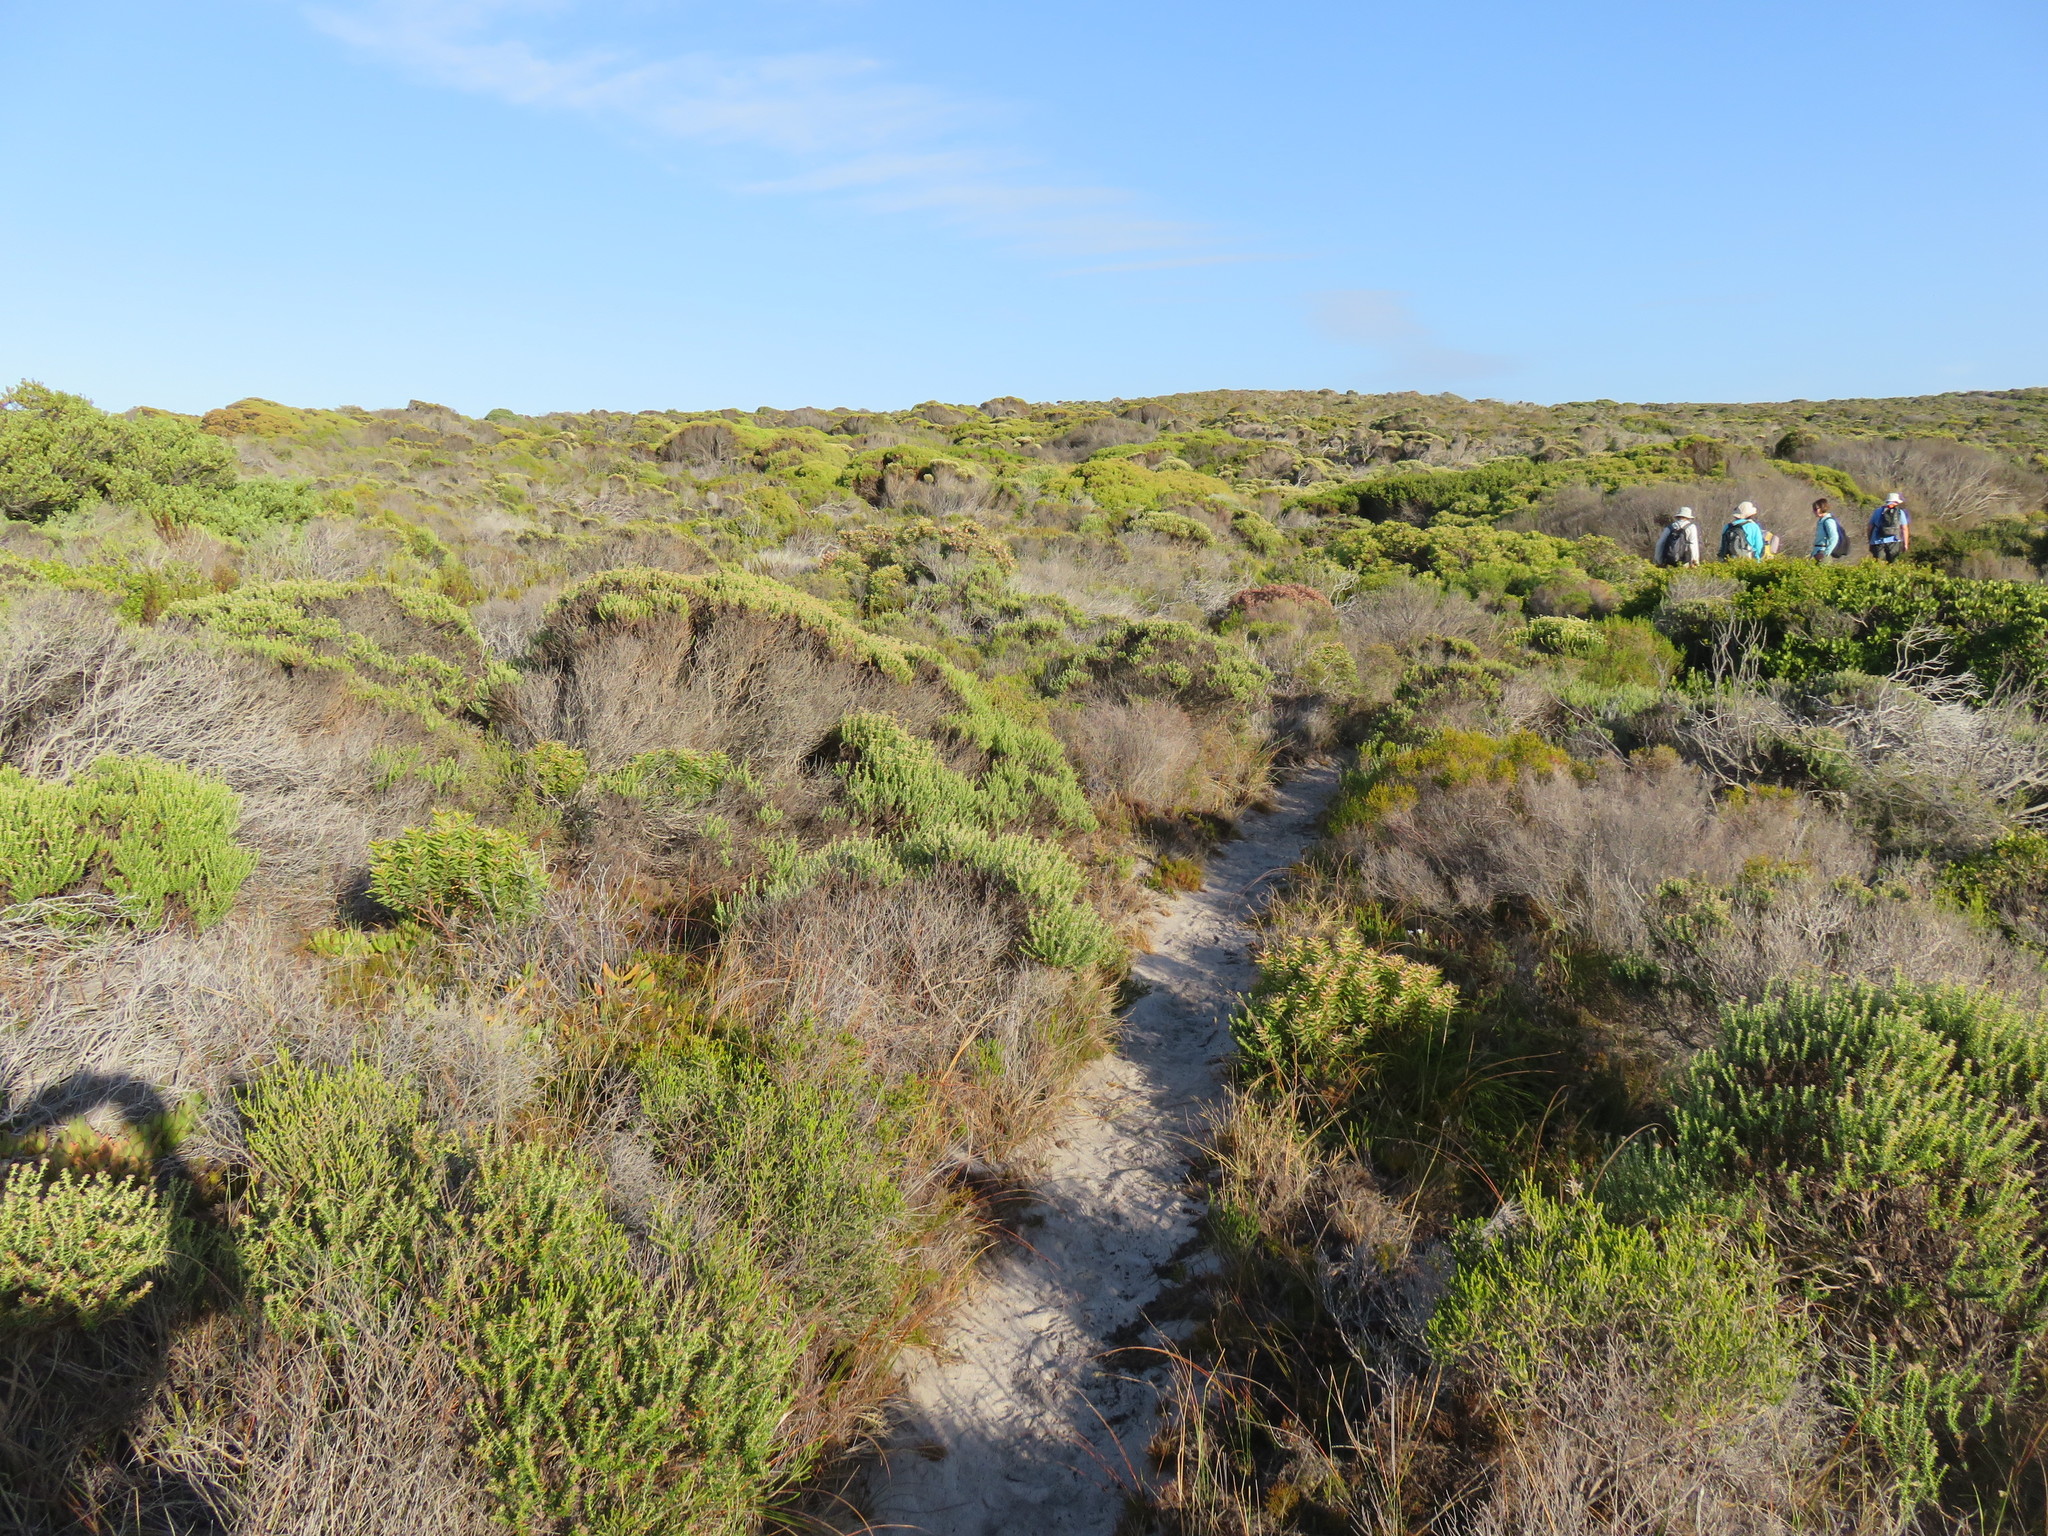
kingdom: Plantae
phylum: Tracheophyta
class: Magnoliopsida
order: Asterales
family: Asteraceae
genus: Metalasia
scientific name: Metalasia densa
